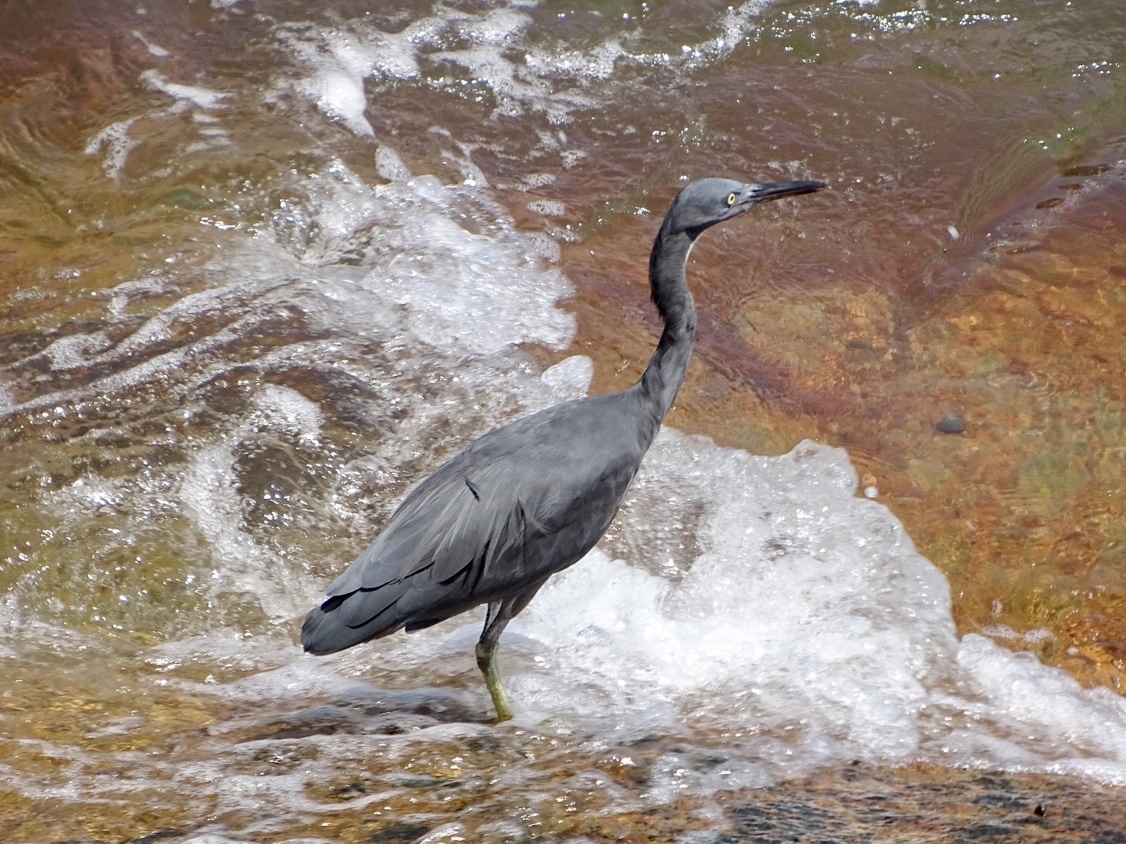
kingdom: Animalia
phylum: Chordata
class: Aves
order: Pelecaniformes
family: Ardeidae
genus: Egretta
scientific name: Egretta sacra
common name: Pacific reef heron
